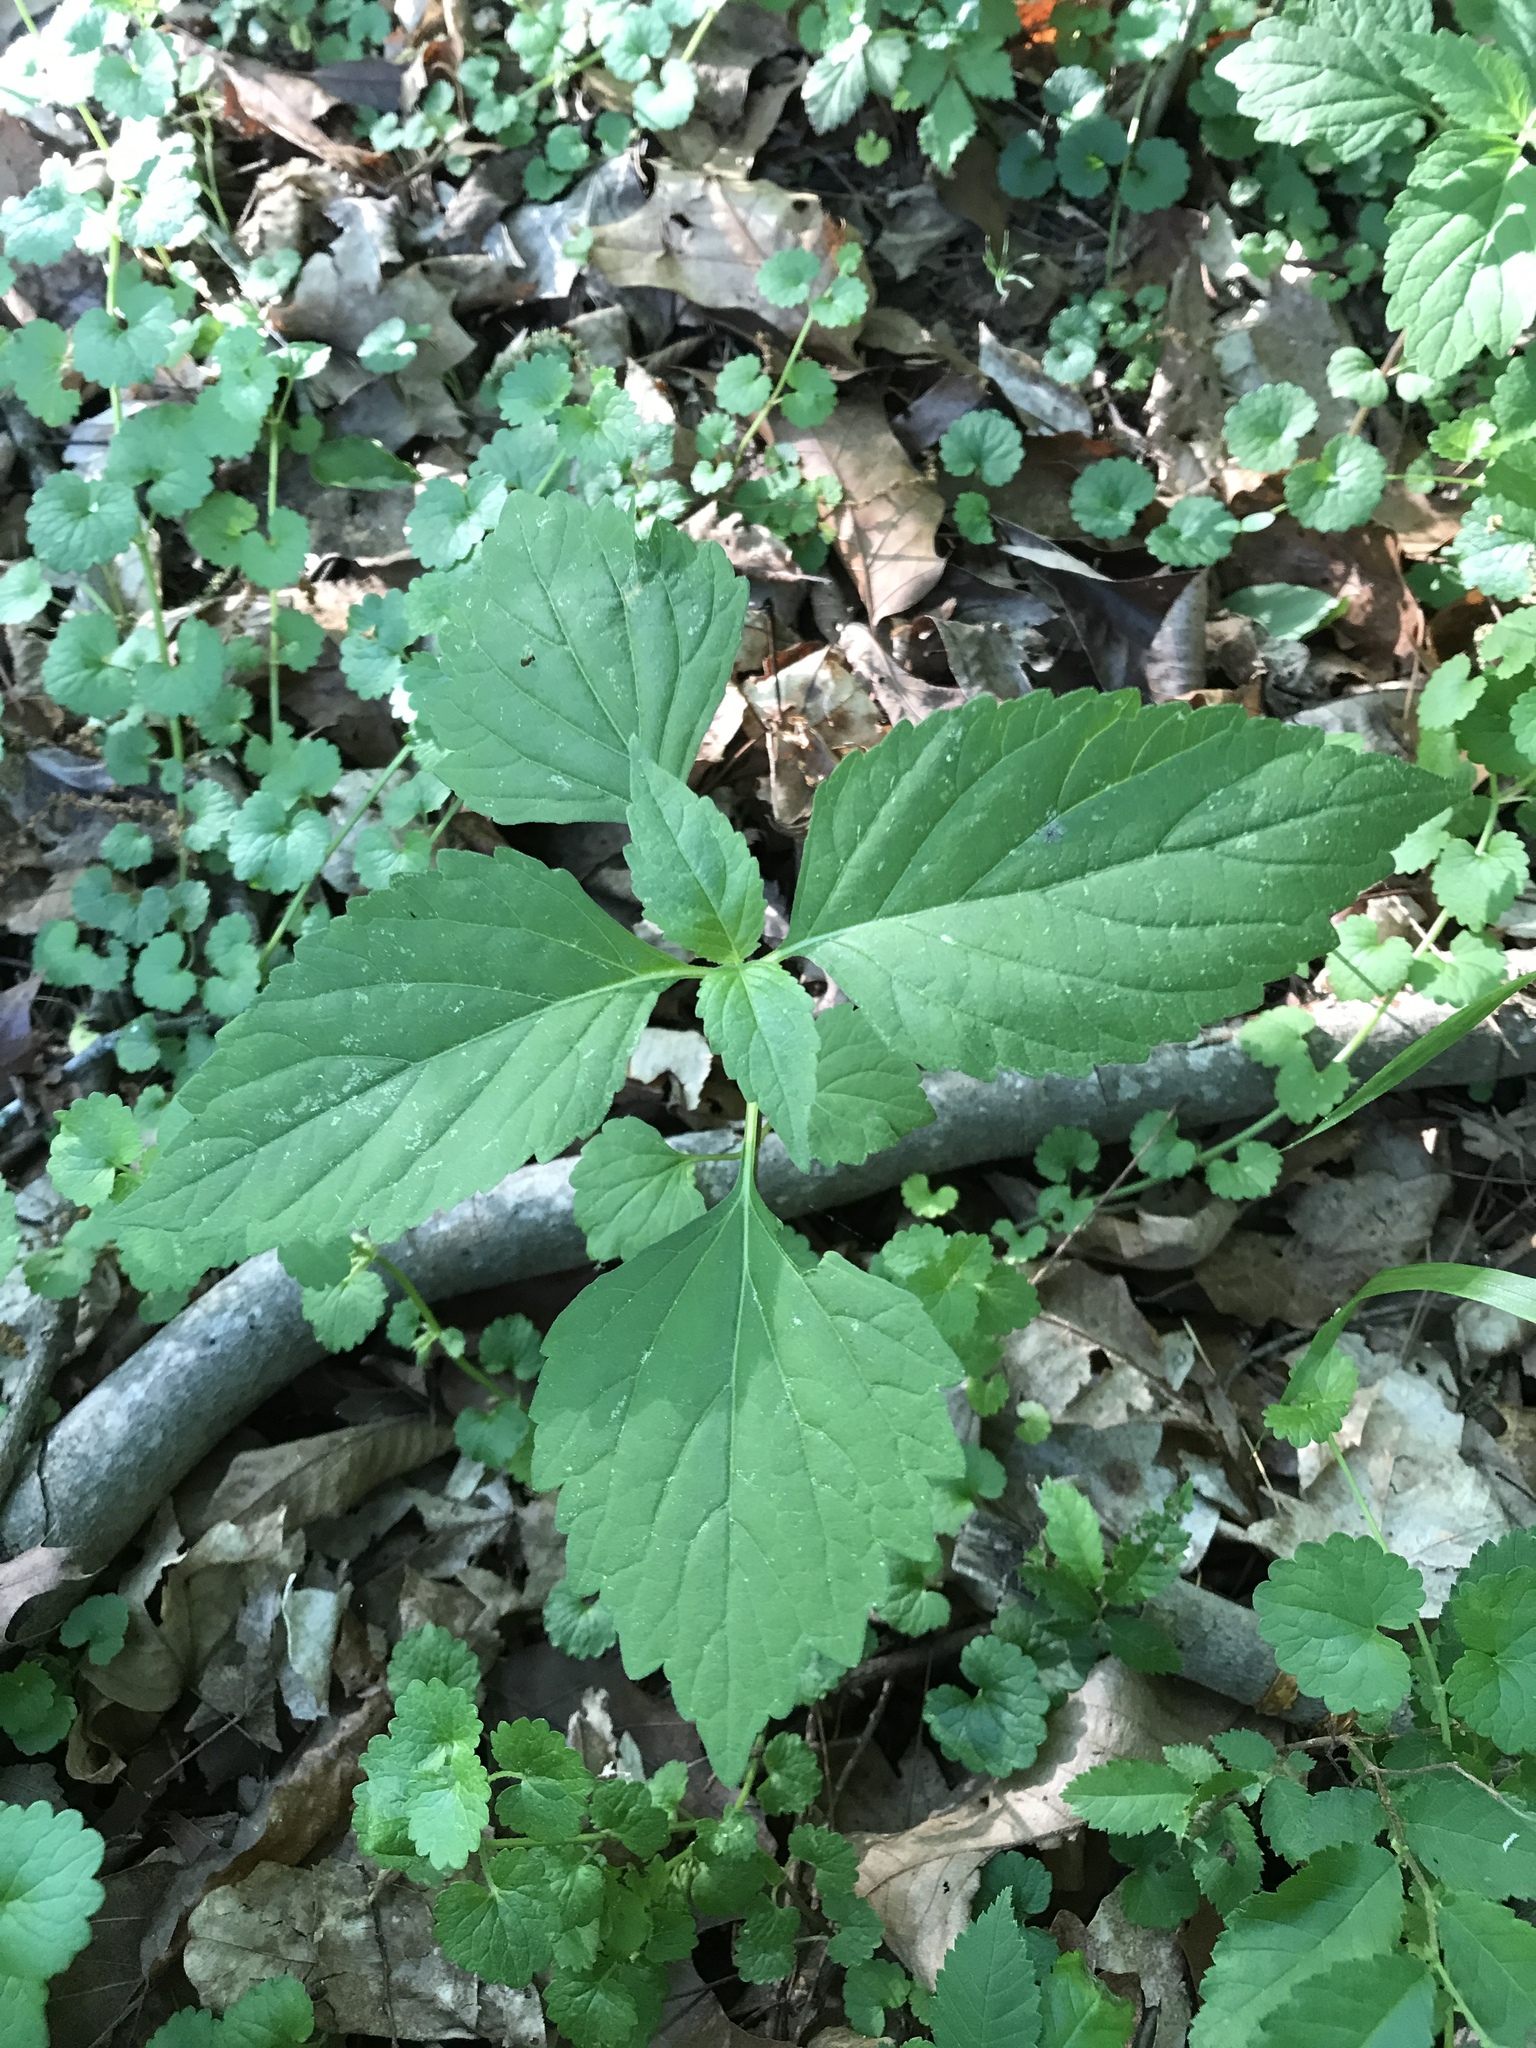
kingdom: Plantae
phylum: Tracheophyta
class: Magnoliopsida
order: Lamiales
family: Phrymaceae
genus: Phryma
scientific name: Phryma leptostachya
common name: American lopseed
